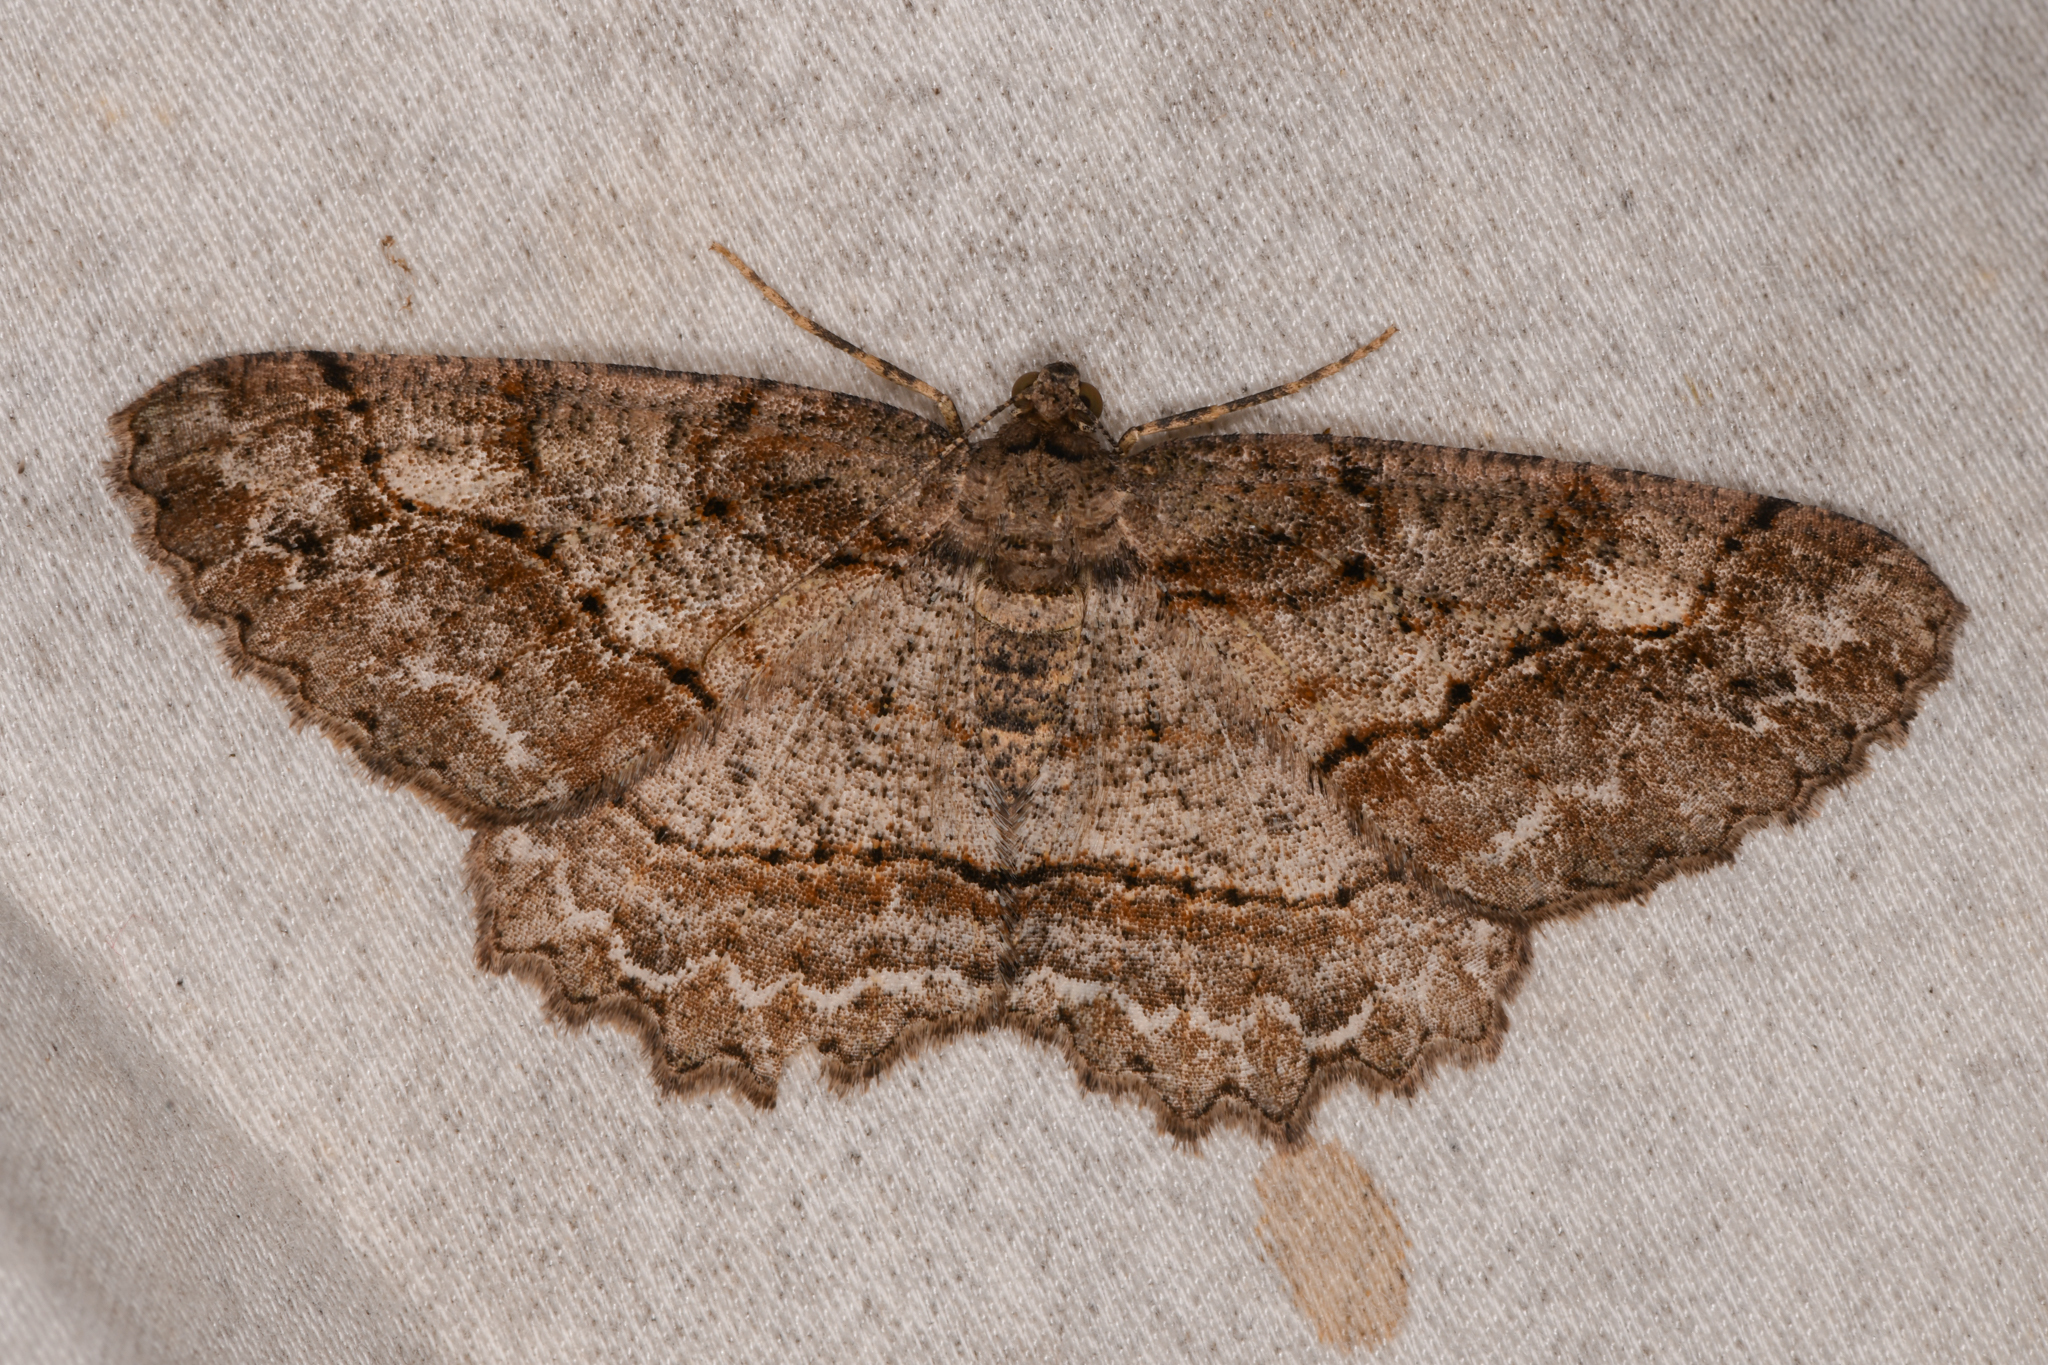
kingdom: Animalia
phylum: Arthropoda
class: Insecta
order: Lepidoptera
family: Geometridae
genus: Neoalcis
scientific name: Neoalcis californiaria
